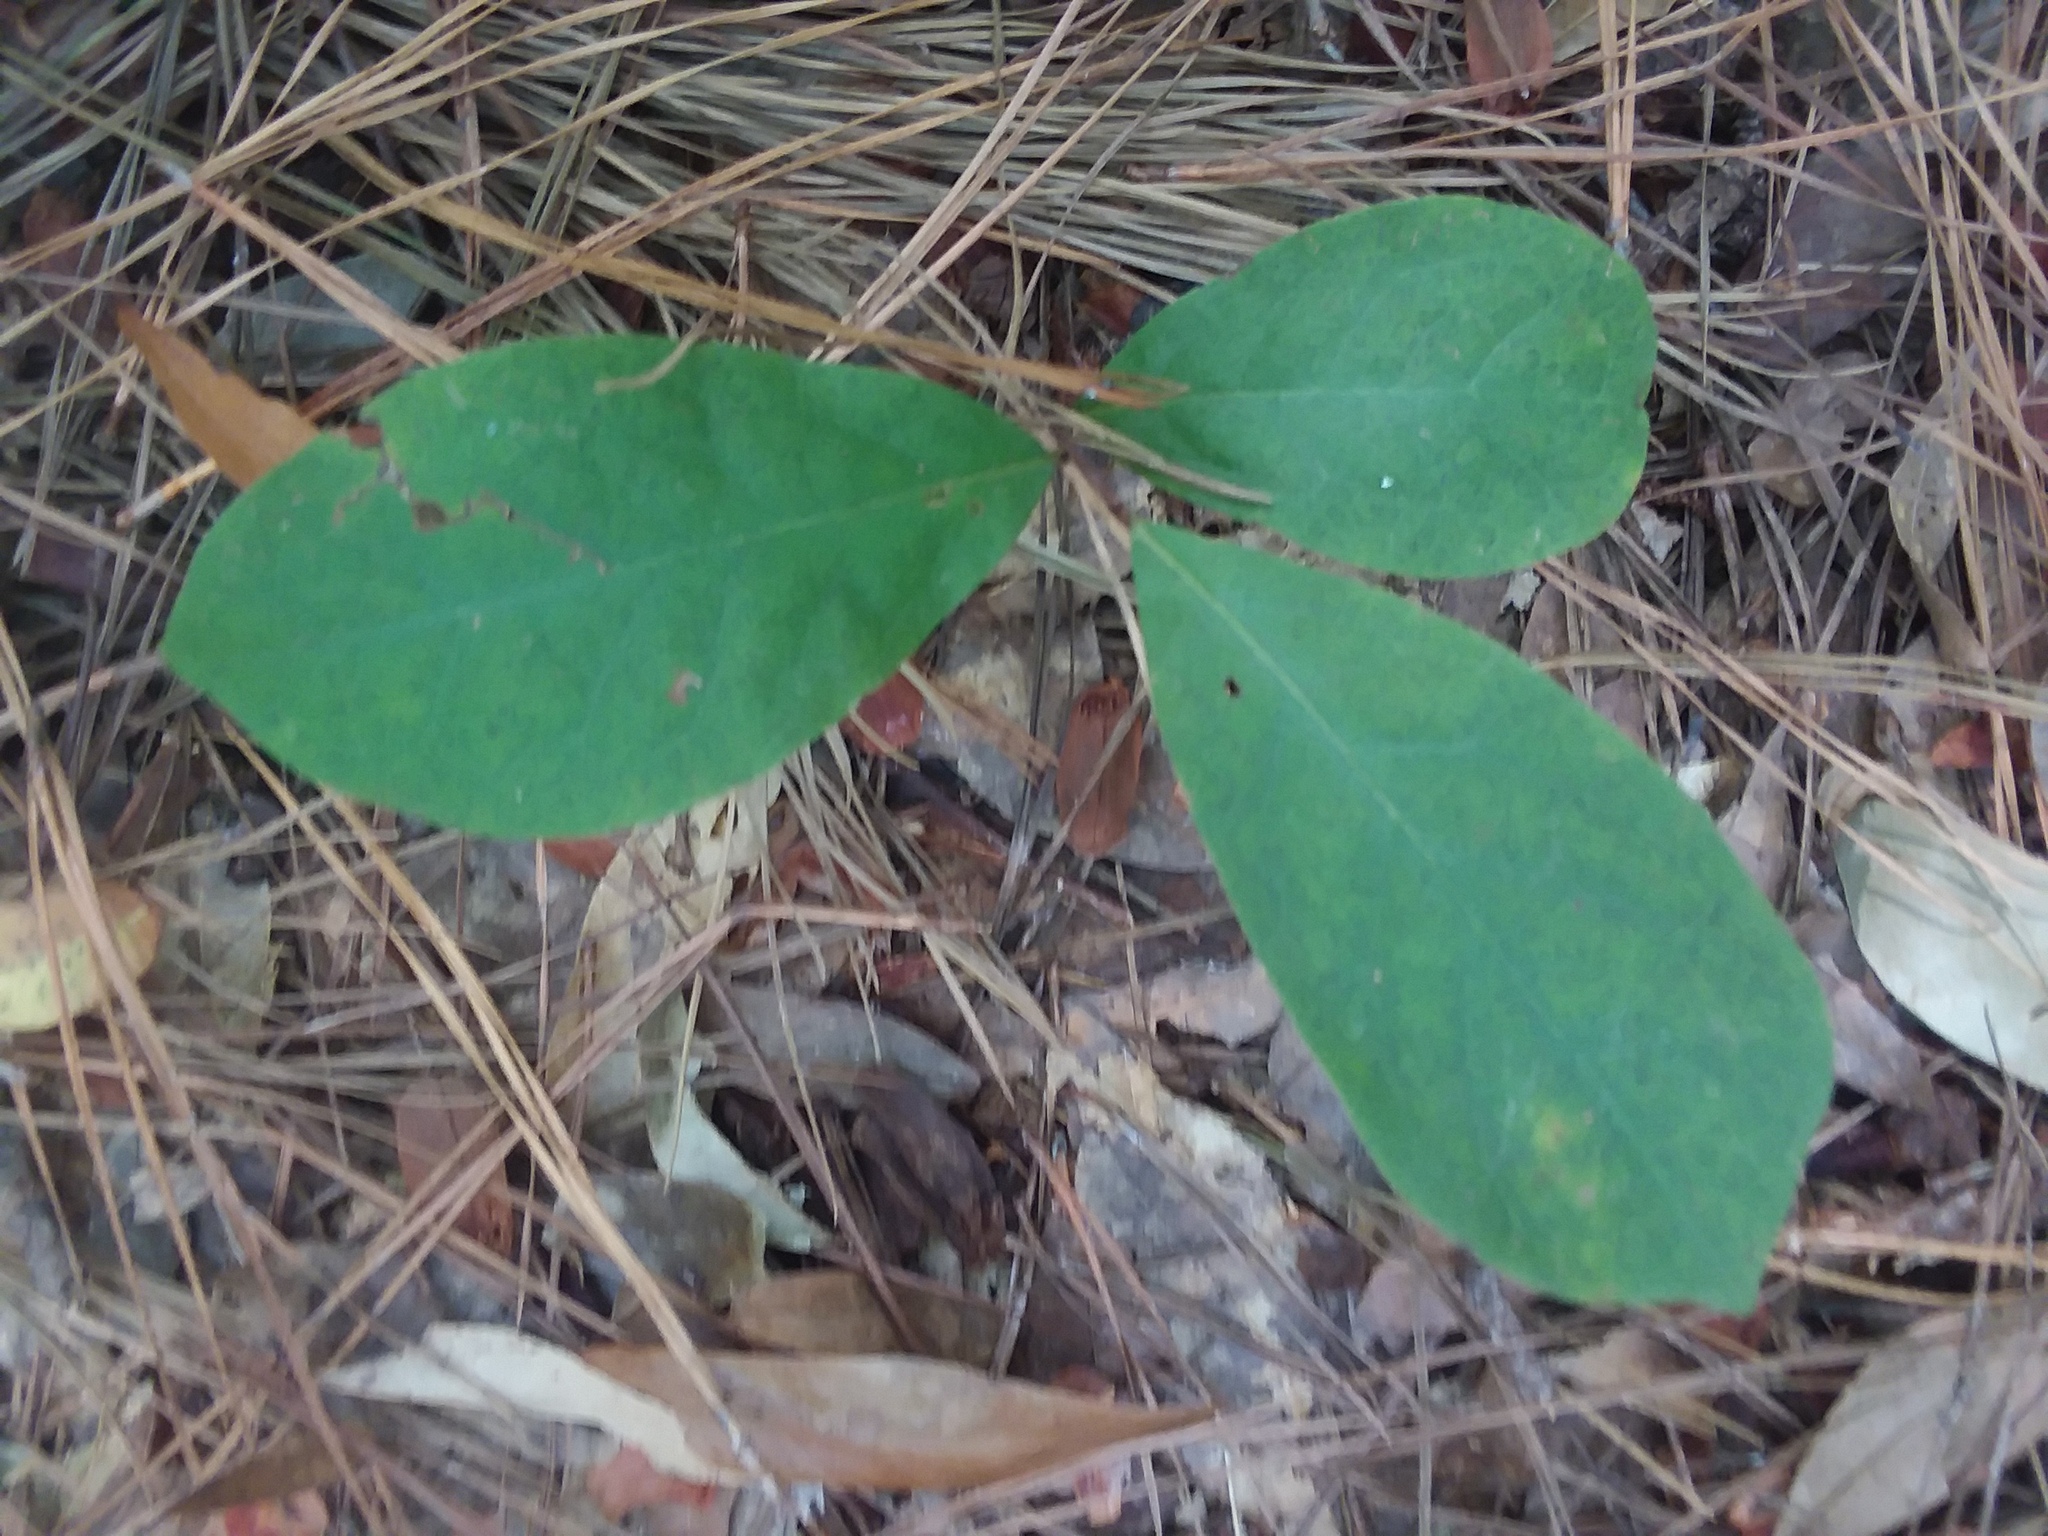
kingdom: Plantae
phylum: Tracheophyta
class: Magnoliopsida
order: Magnoliales
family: Annonaceae
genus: Asimina
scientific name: Asimina parviflora
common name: Dwarf pawpaw
